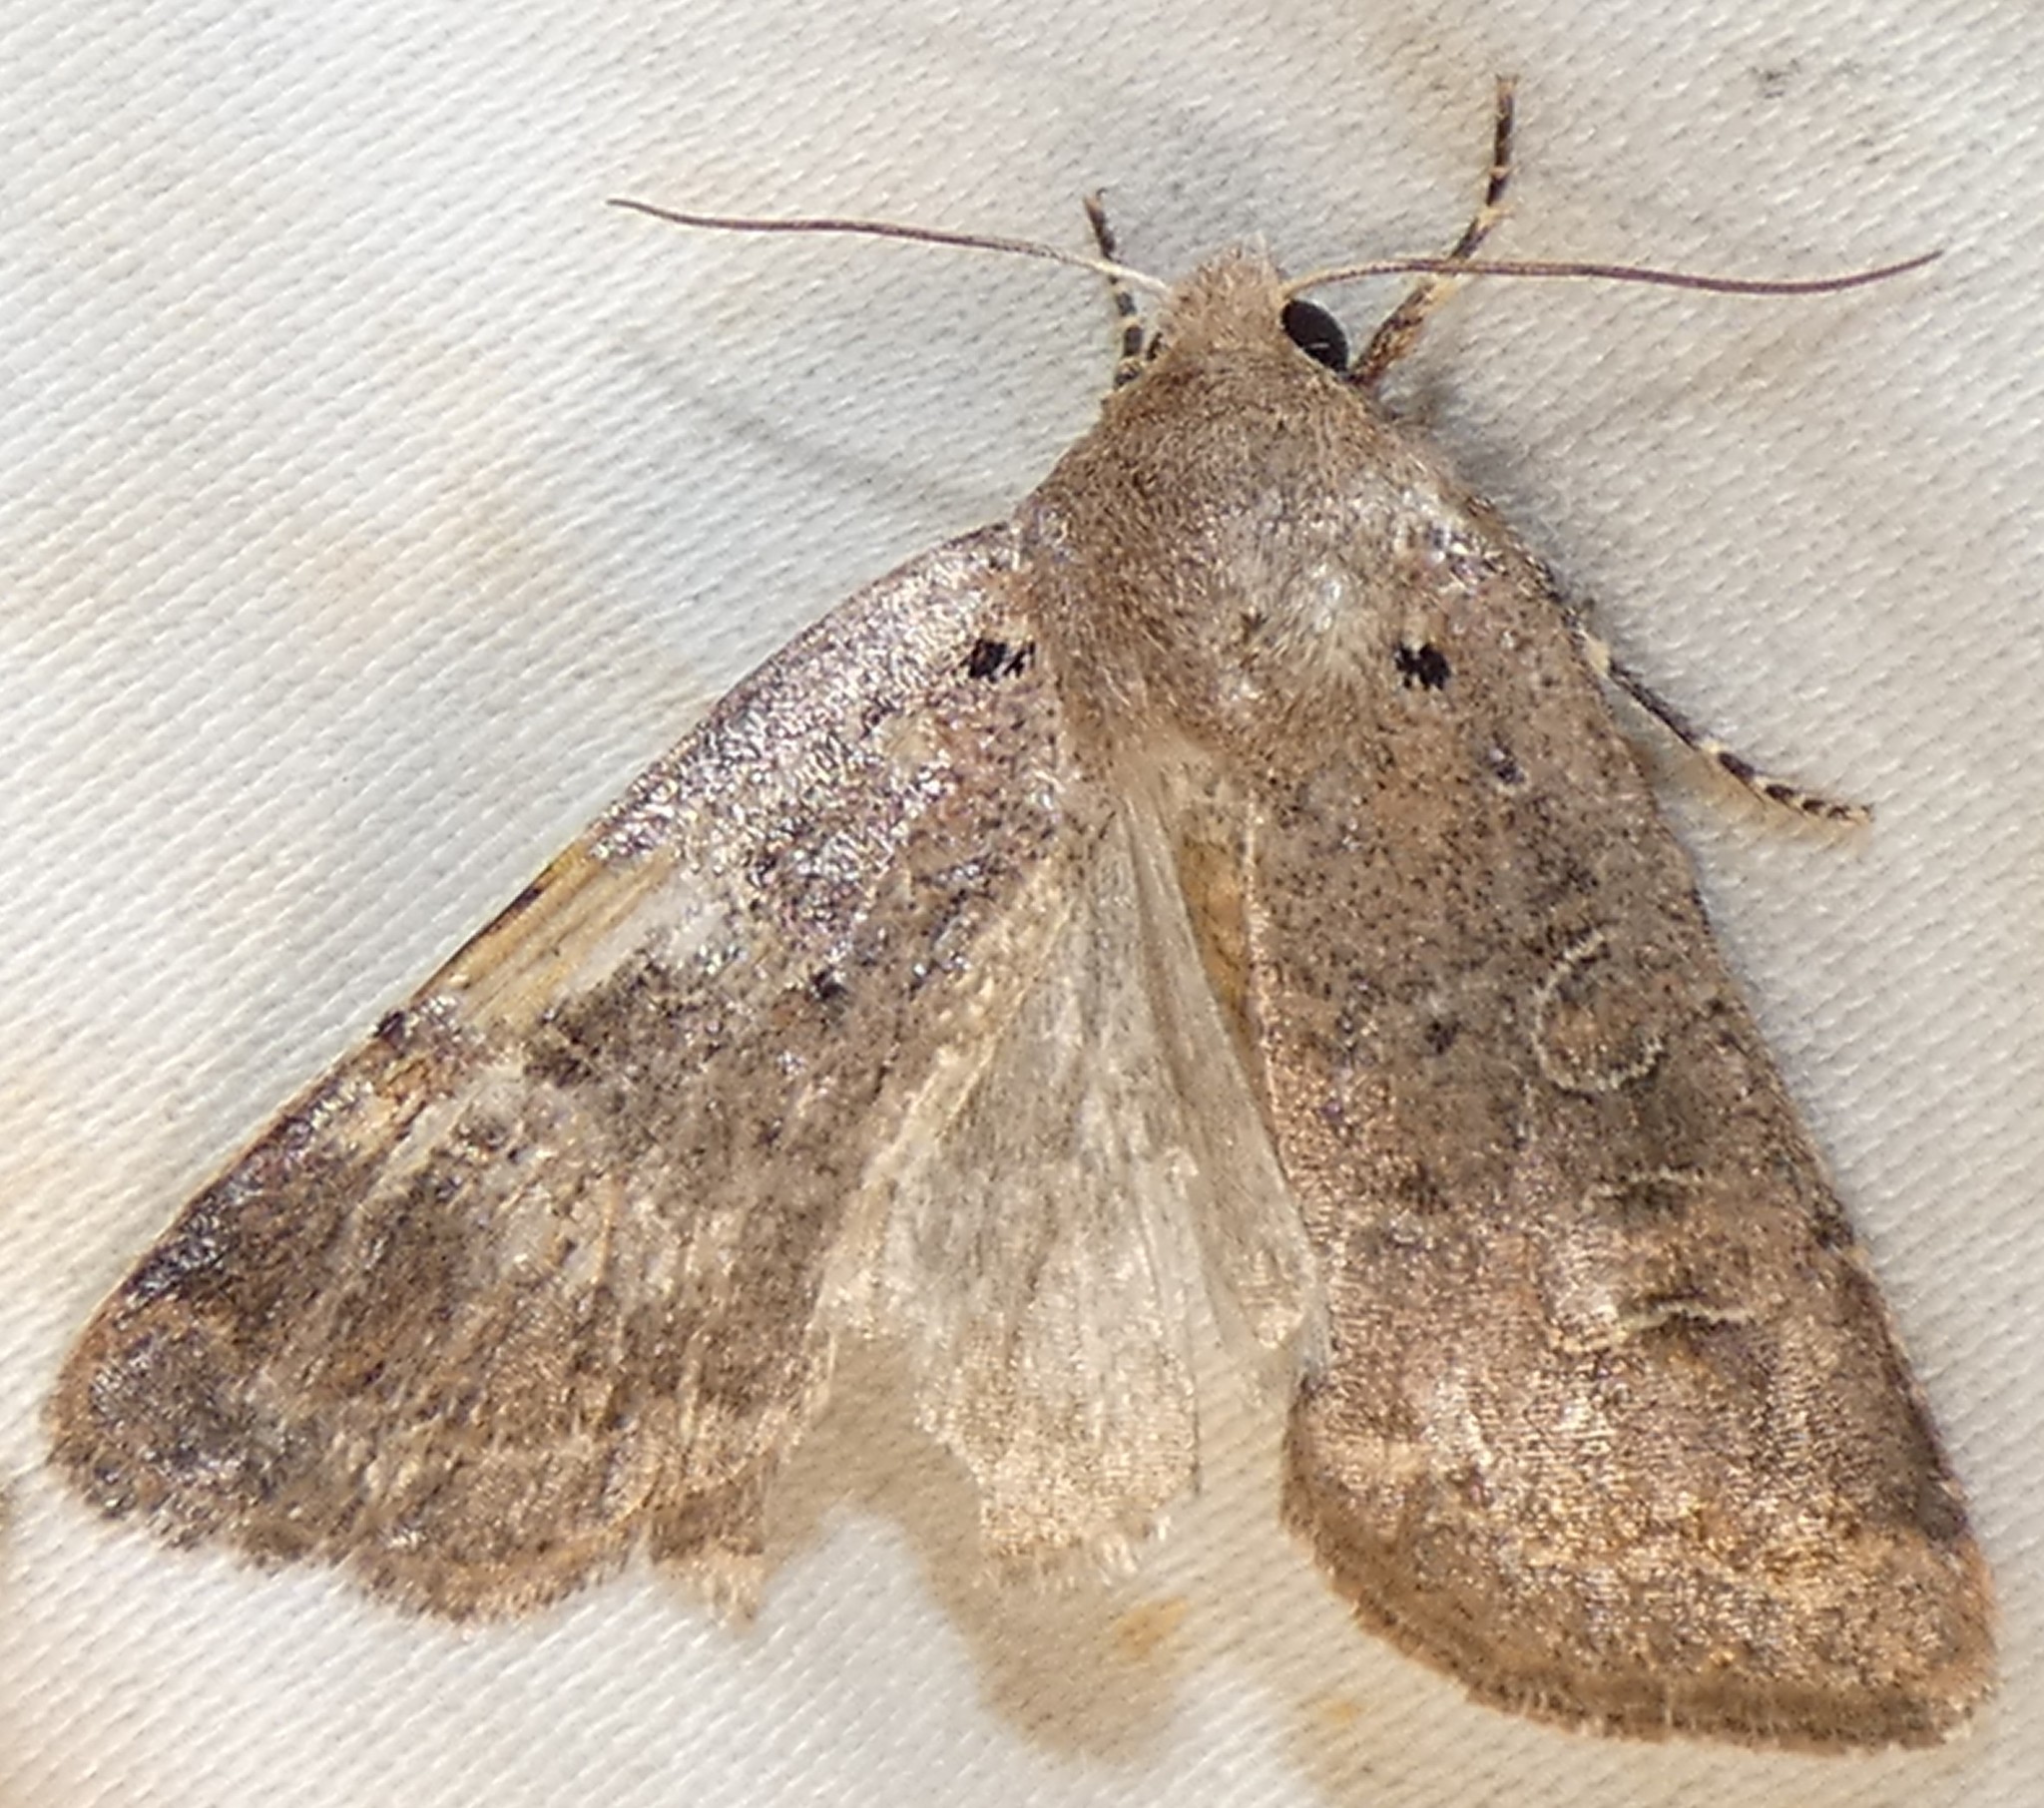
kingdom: Animalia
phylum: Arthropoda
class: Insecta
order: Lepidoptera
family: Noctuidae
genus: Kocakina
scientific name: Kocakina fidelis
